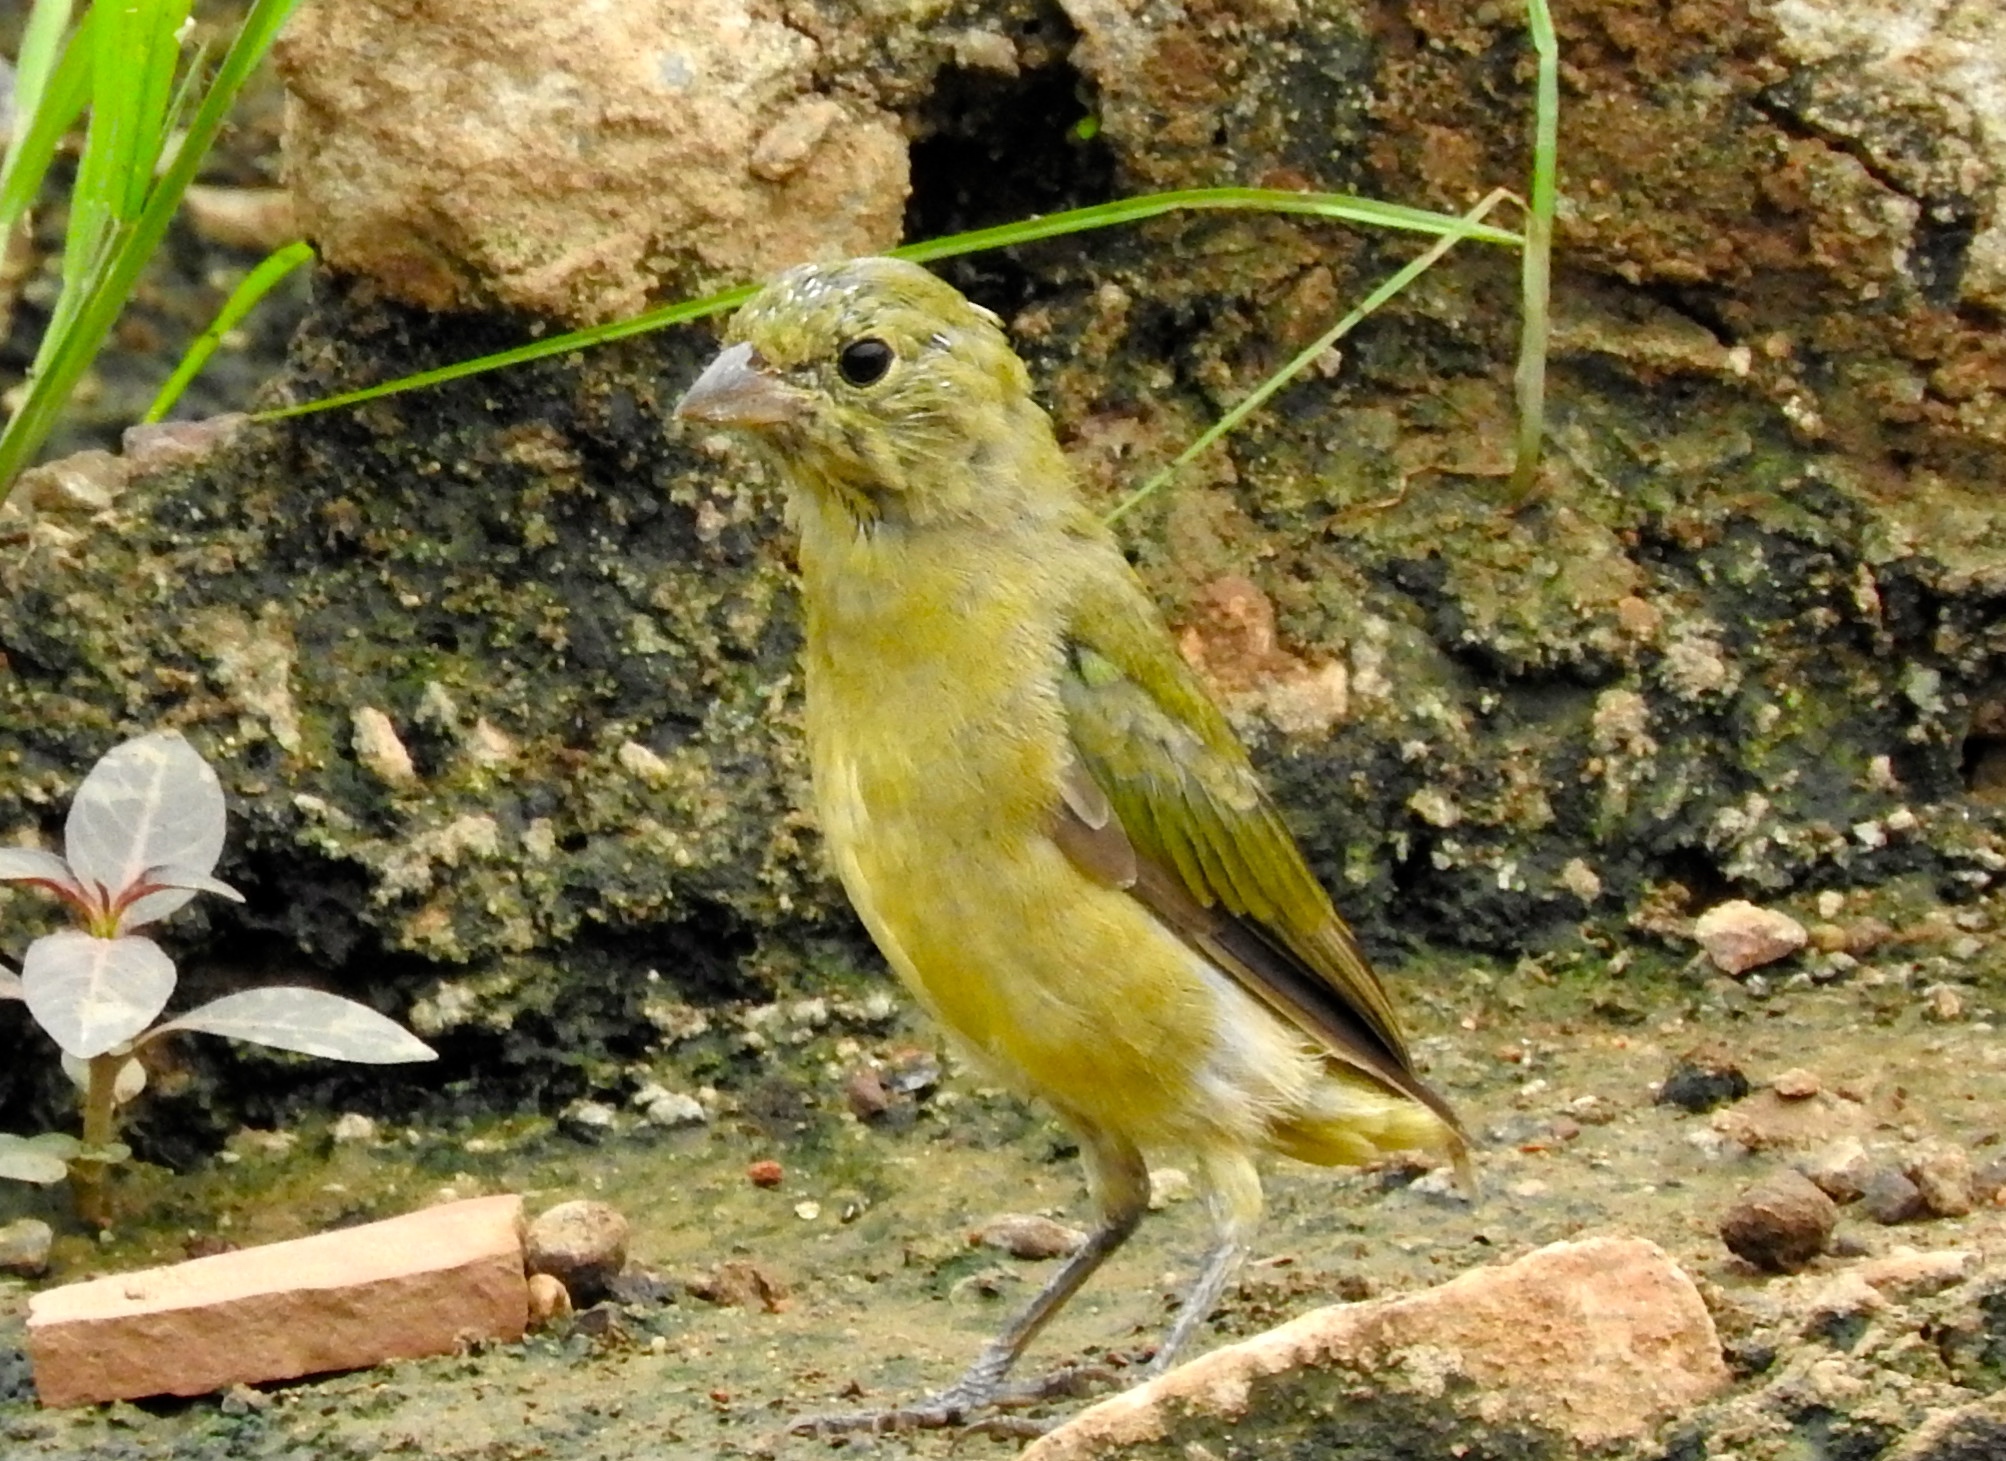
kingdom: Animalia
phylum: Chordata
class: Aves
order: Passeriformes
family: Cardinalidae
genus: Passerina
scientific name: Passerina ciris
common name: Painted bunting
